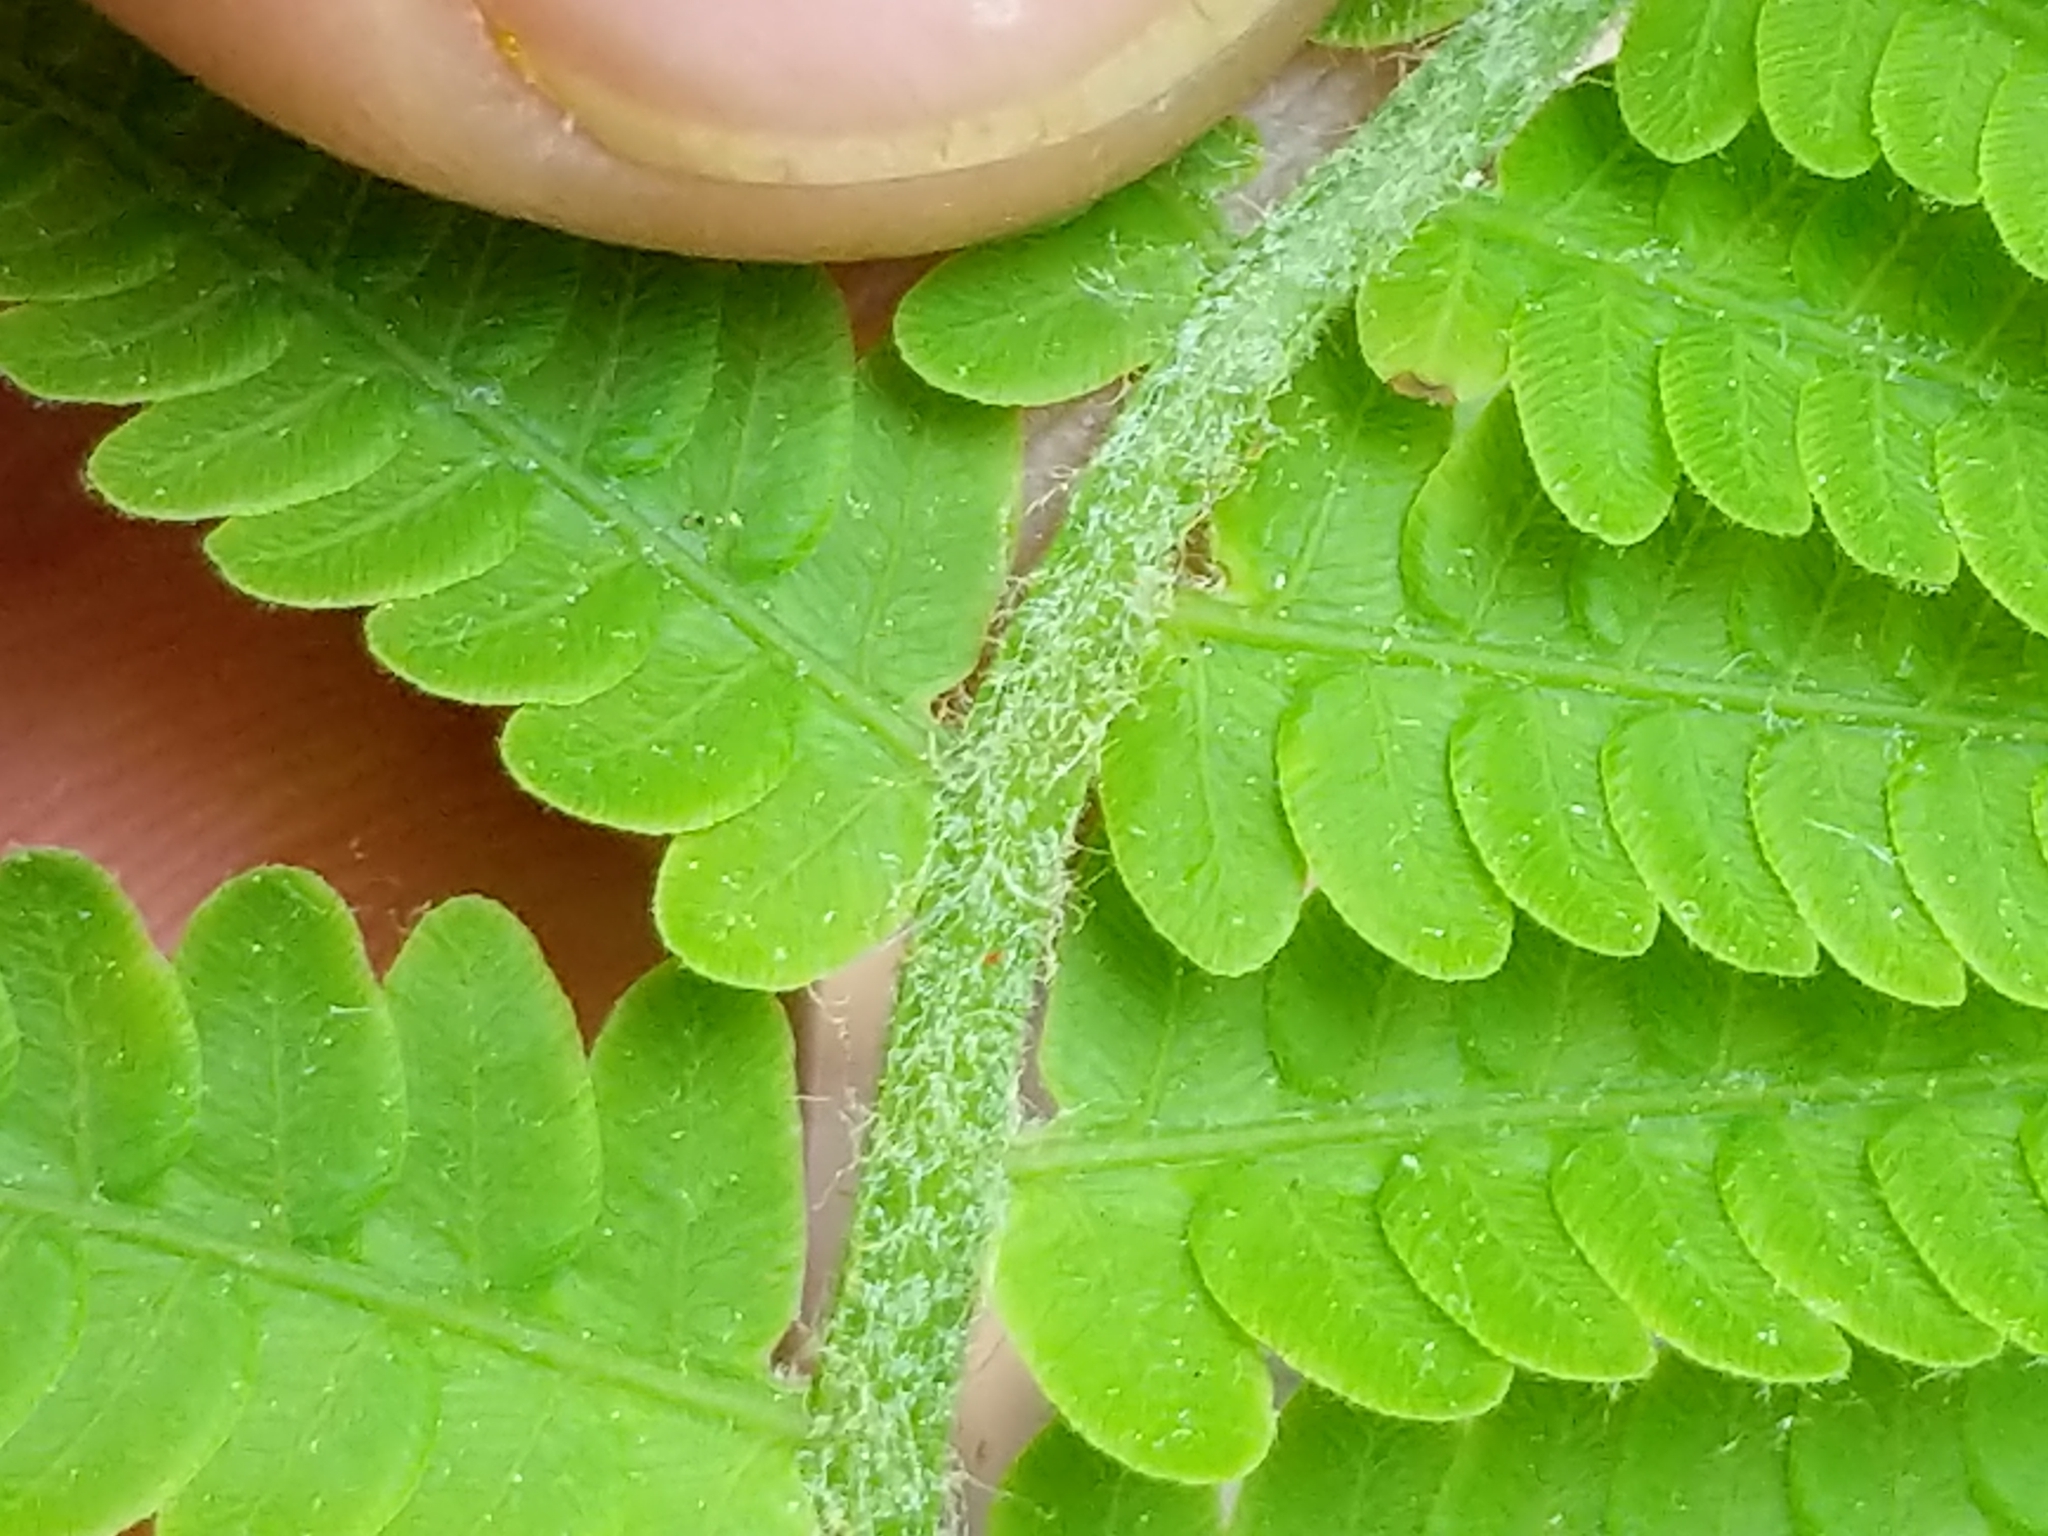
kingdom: Plantae
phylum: Tracheophyta
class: Polypodiopsida
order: Osmundales
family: Osmundaceae
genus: Osmundastrum
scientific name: Osmundastrum cinnamomeum
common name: Cinnamon fern
